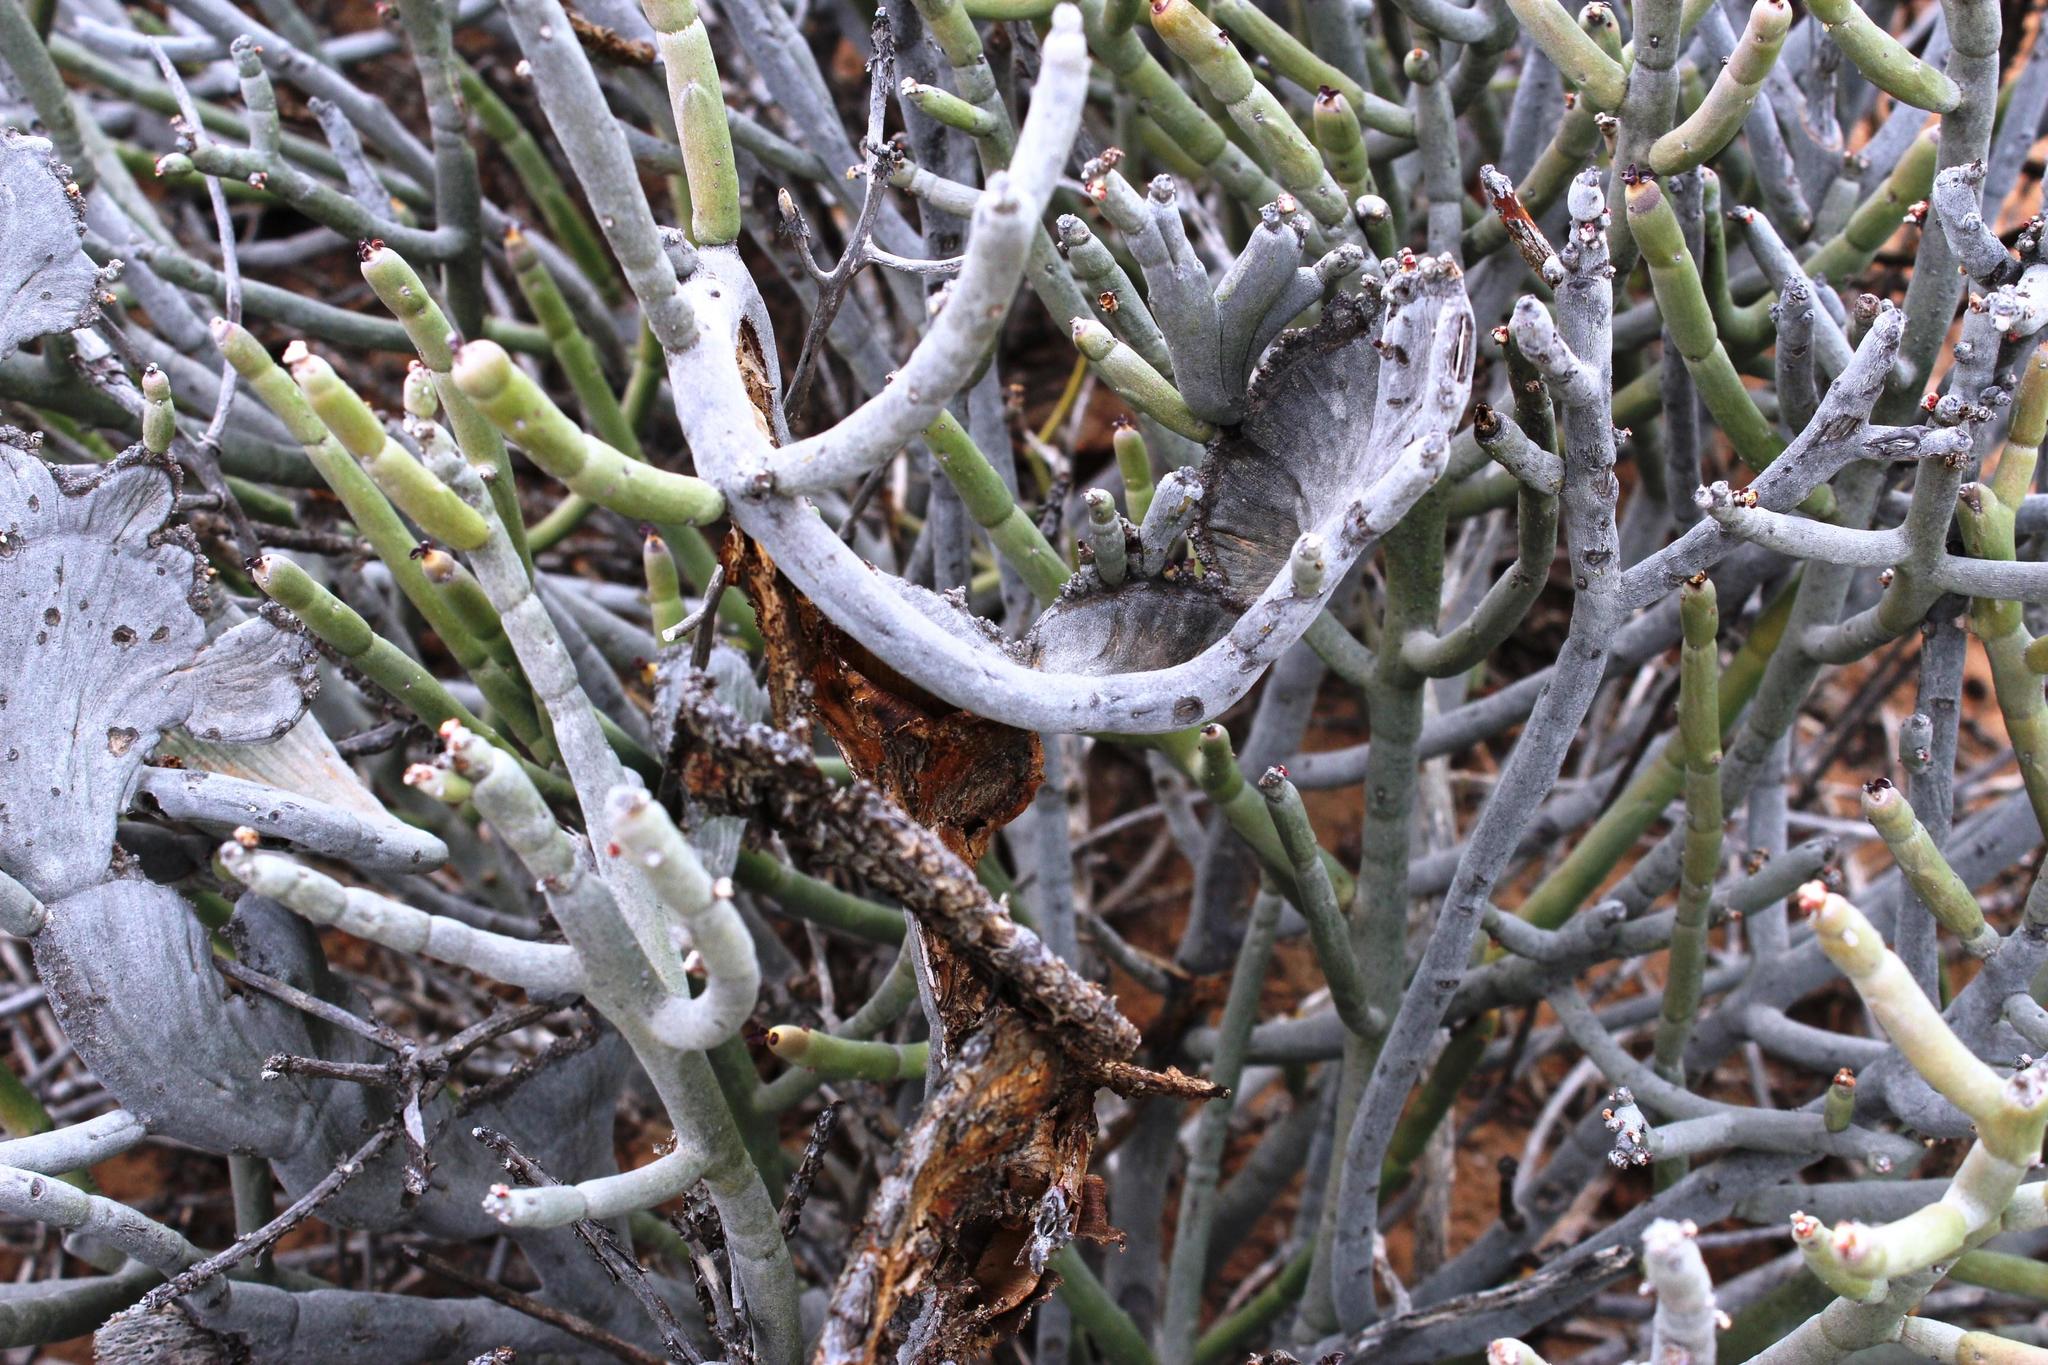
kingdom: Plantae
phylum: Tracheophyta
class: Magnoliopsida
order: Malpighiales
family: Euphorbiaceae
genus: Euphorbia
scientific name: Euphorbia gummifera
